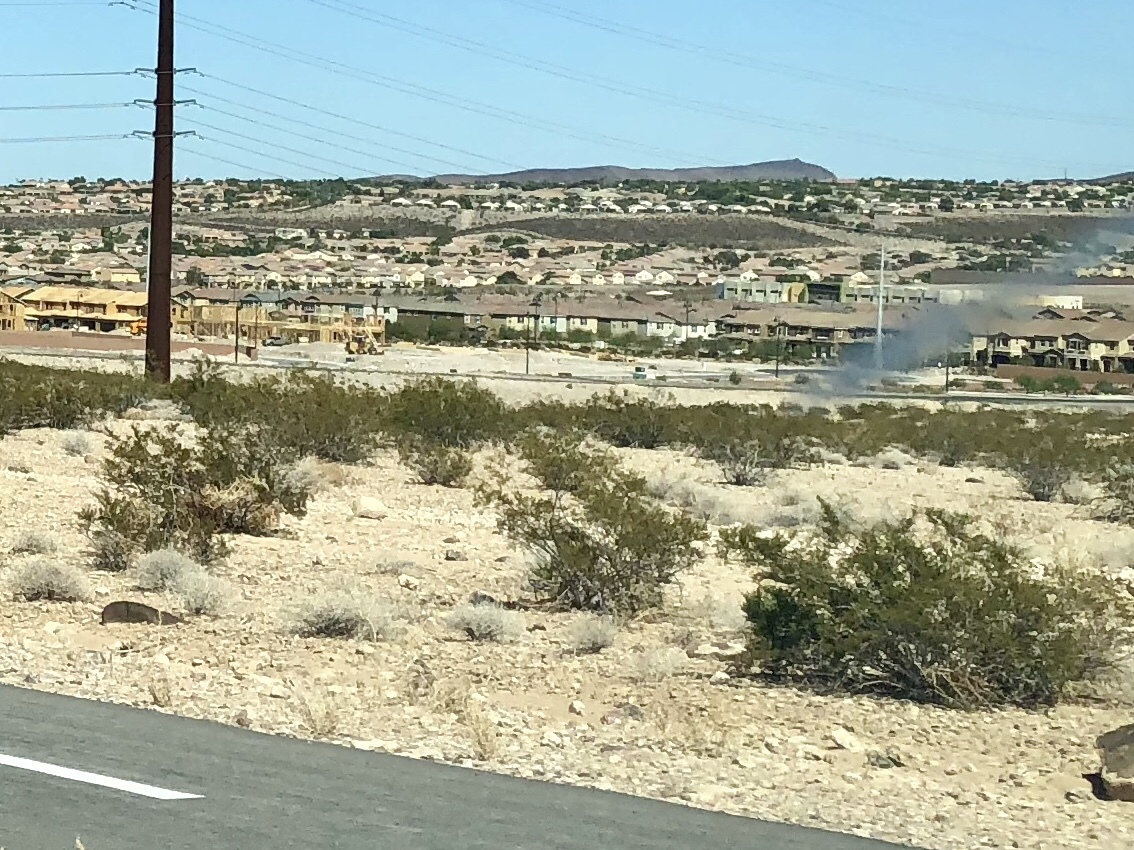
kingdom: Plantae
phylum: Tracheophyta
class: Magnoliopsida
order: Zygophyllales
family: Zygophyllaceae
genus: Larrea
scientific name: Larrea tridentata
